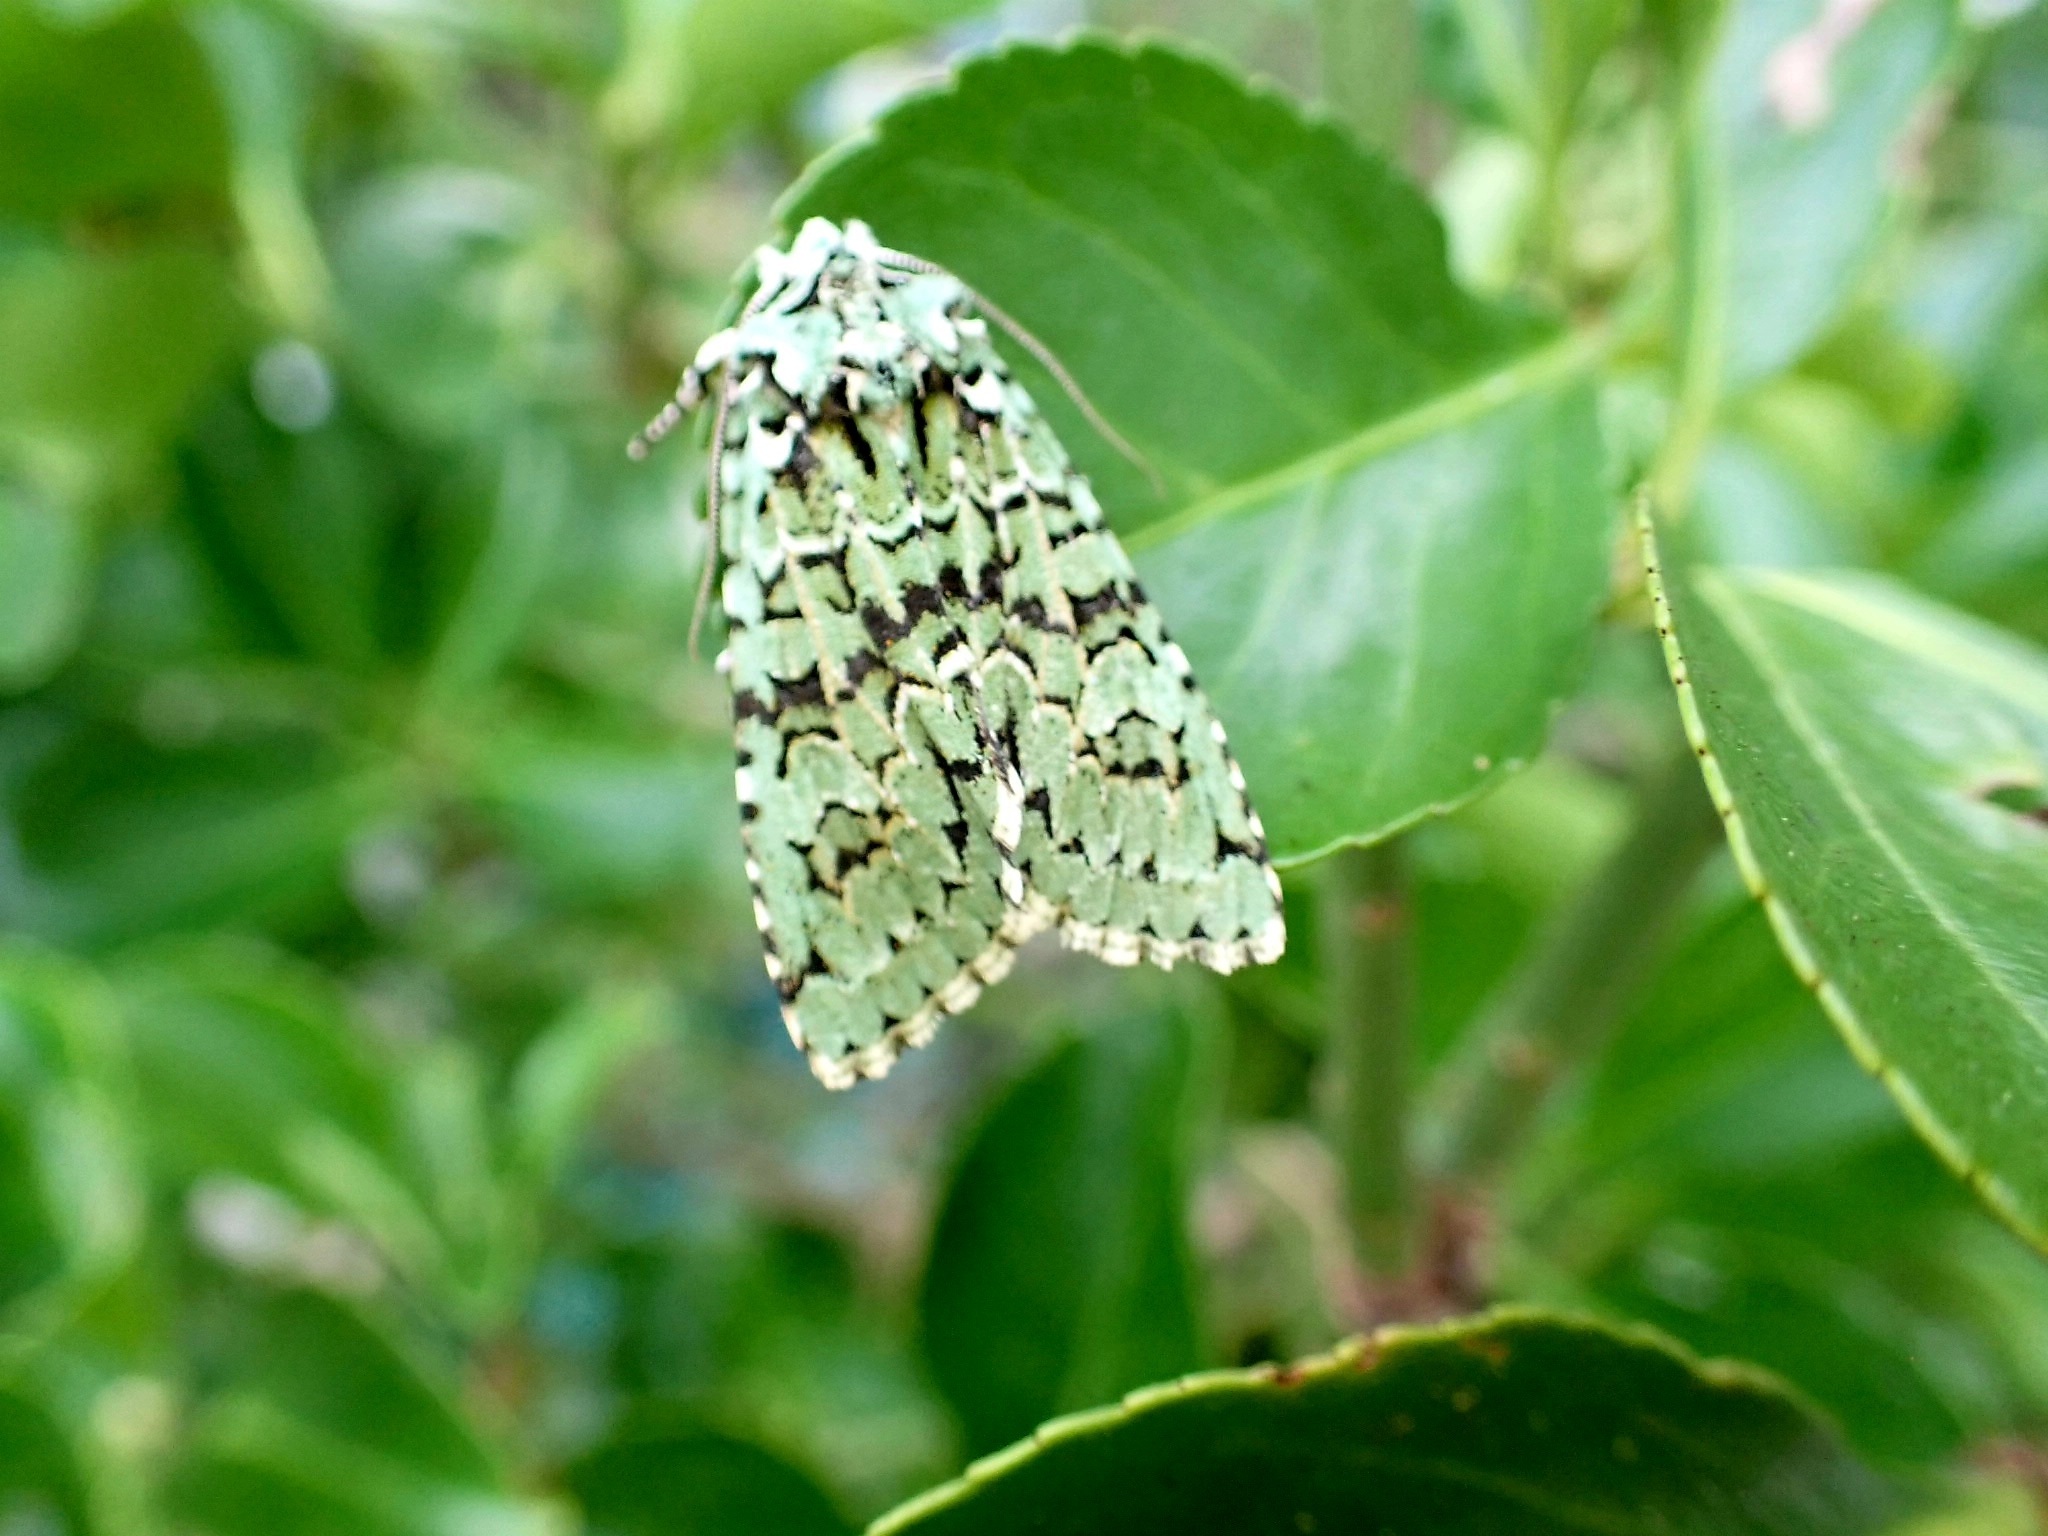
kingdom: Animalia
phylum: Arthropoda
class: Insecta
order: Lepidoptera
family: Noctuidae
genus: Griposia
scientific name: Griposia aprilina
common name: Merveille du jour
